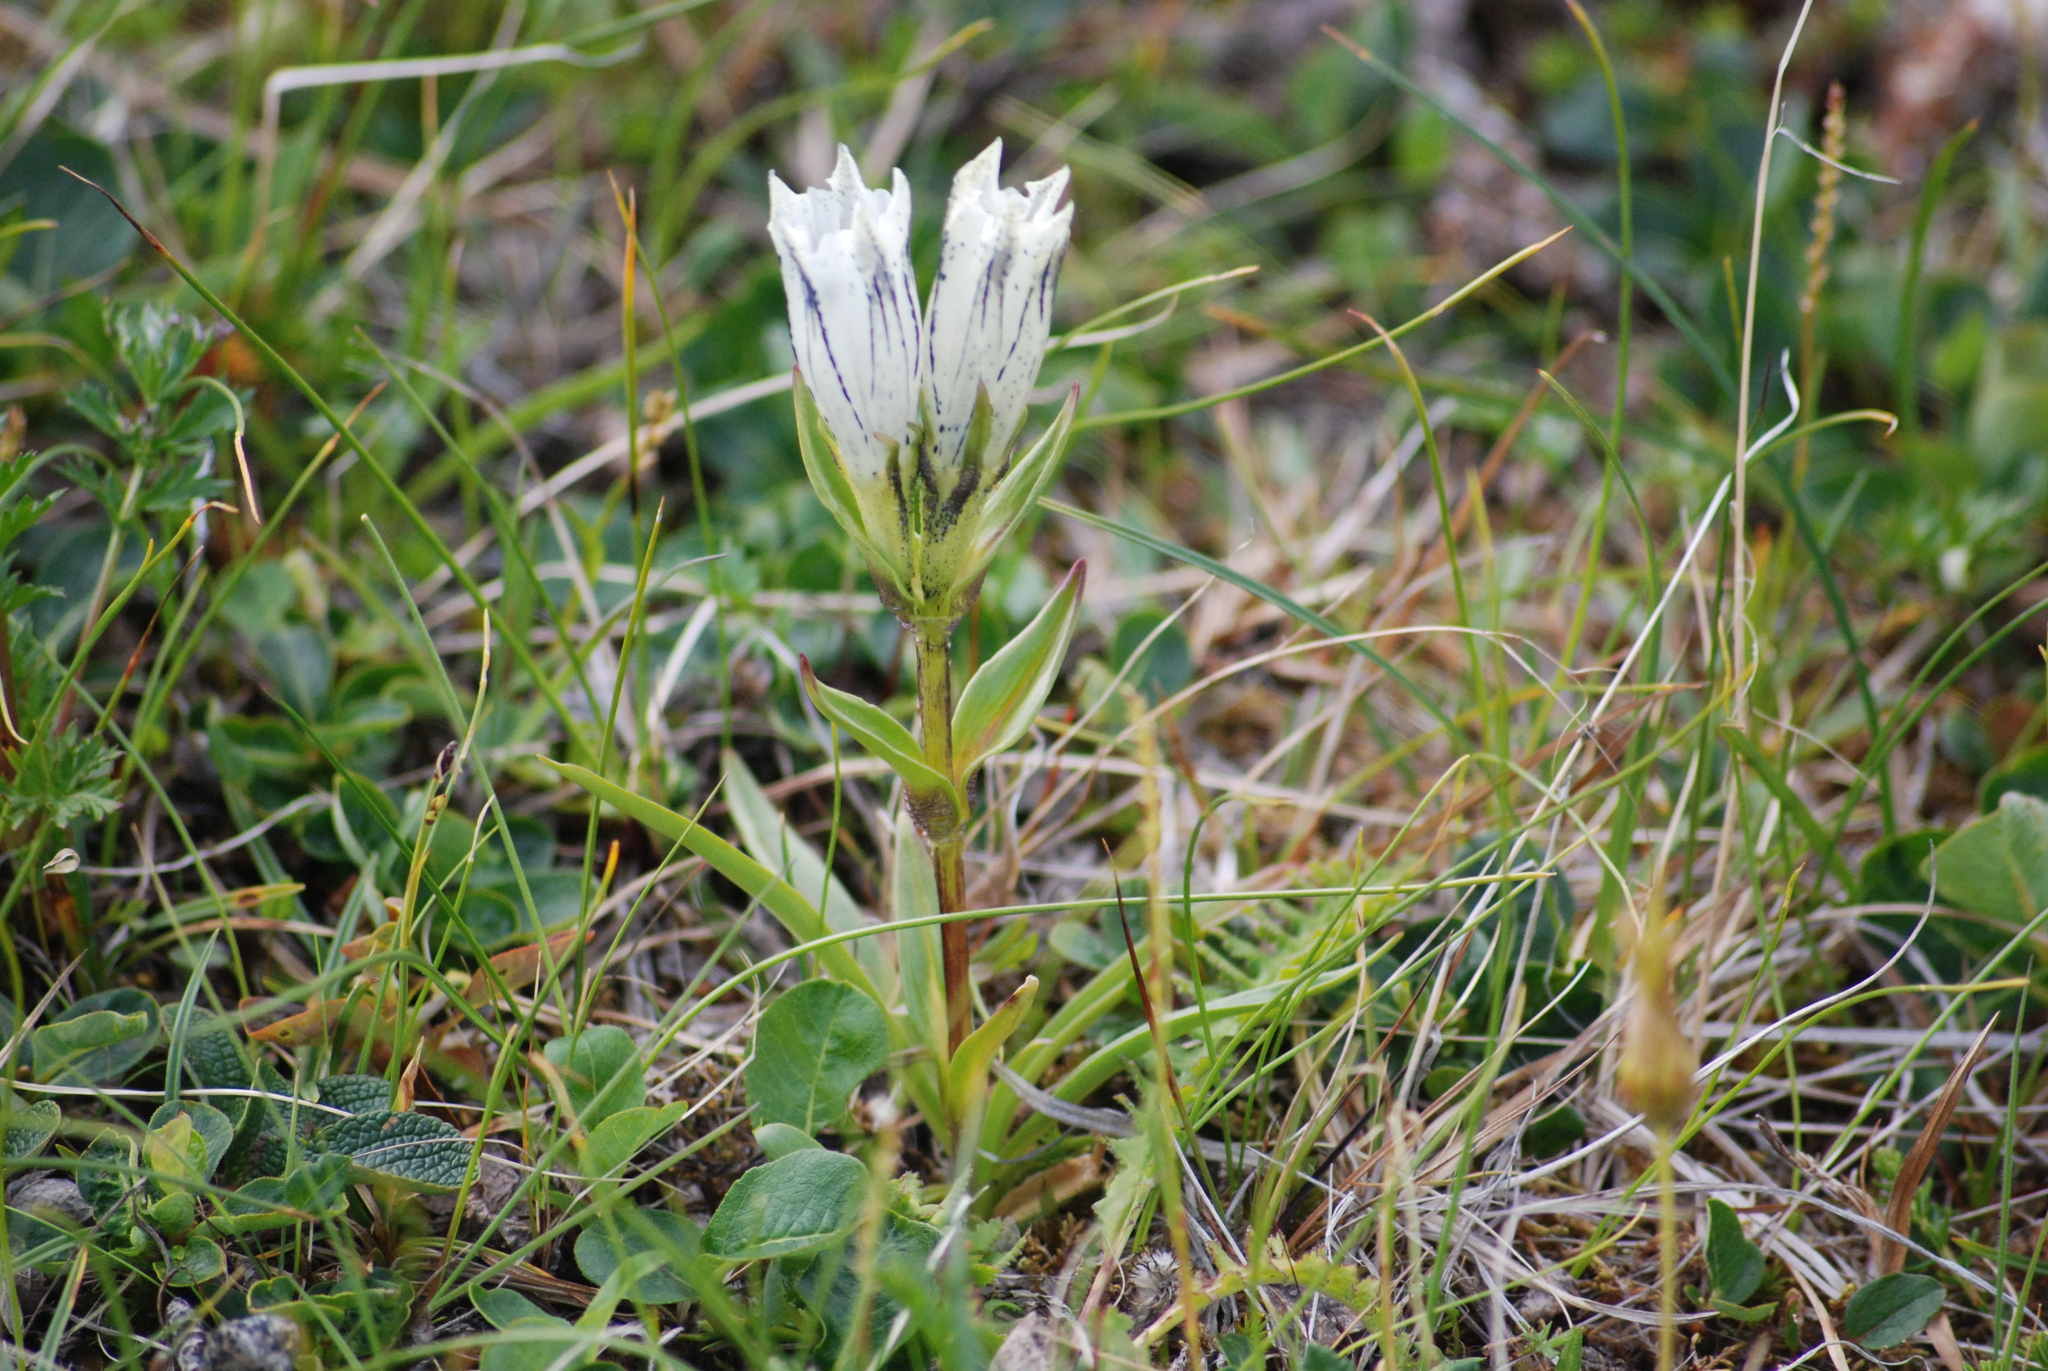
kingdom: Plantae
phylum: Tracheophyta
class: Magnoliopsida
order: Gentianales
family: Gentianaceae
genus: Gentiana
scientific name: Gentiana algida
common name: Arctic gentian
